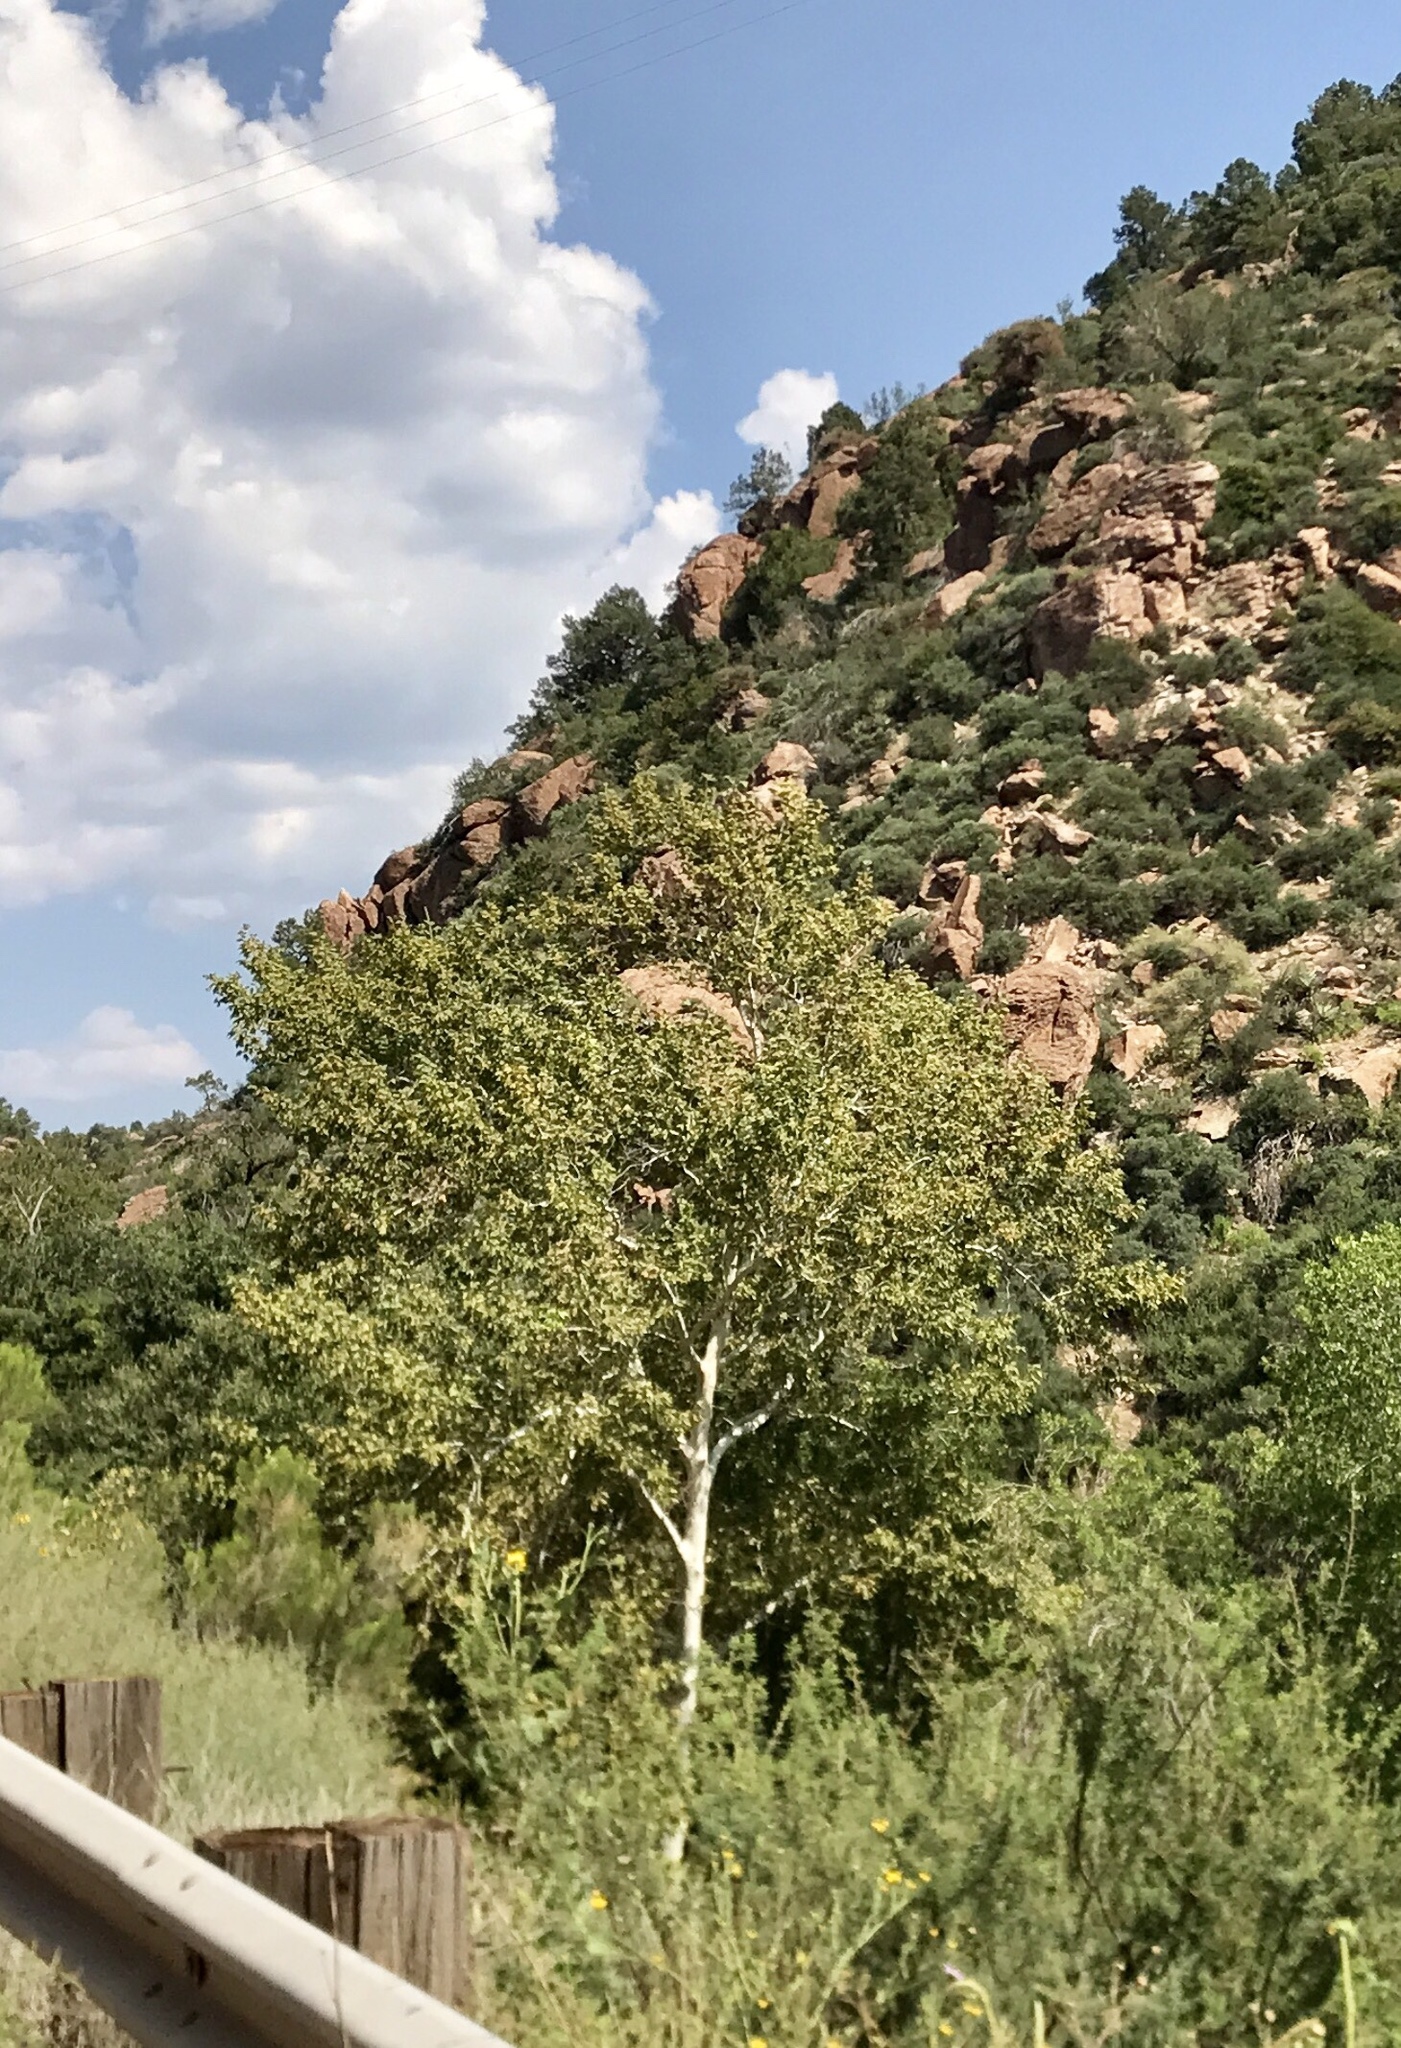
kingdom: Plantae
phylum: Tracheophyta
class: Magnoliopsida
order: Proteales
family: Platanaceae
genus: Platanus
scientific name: Platanus wrightii
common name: Arizona sycamore
